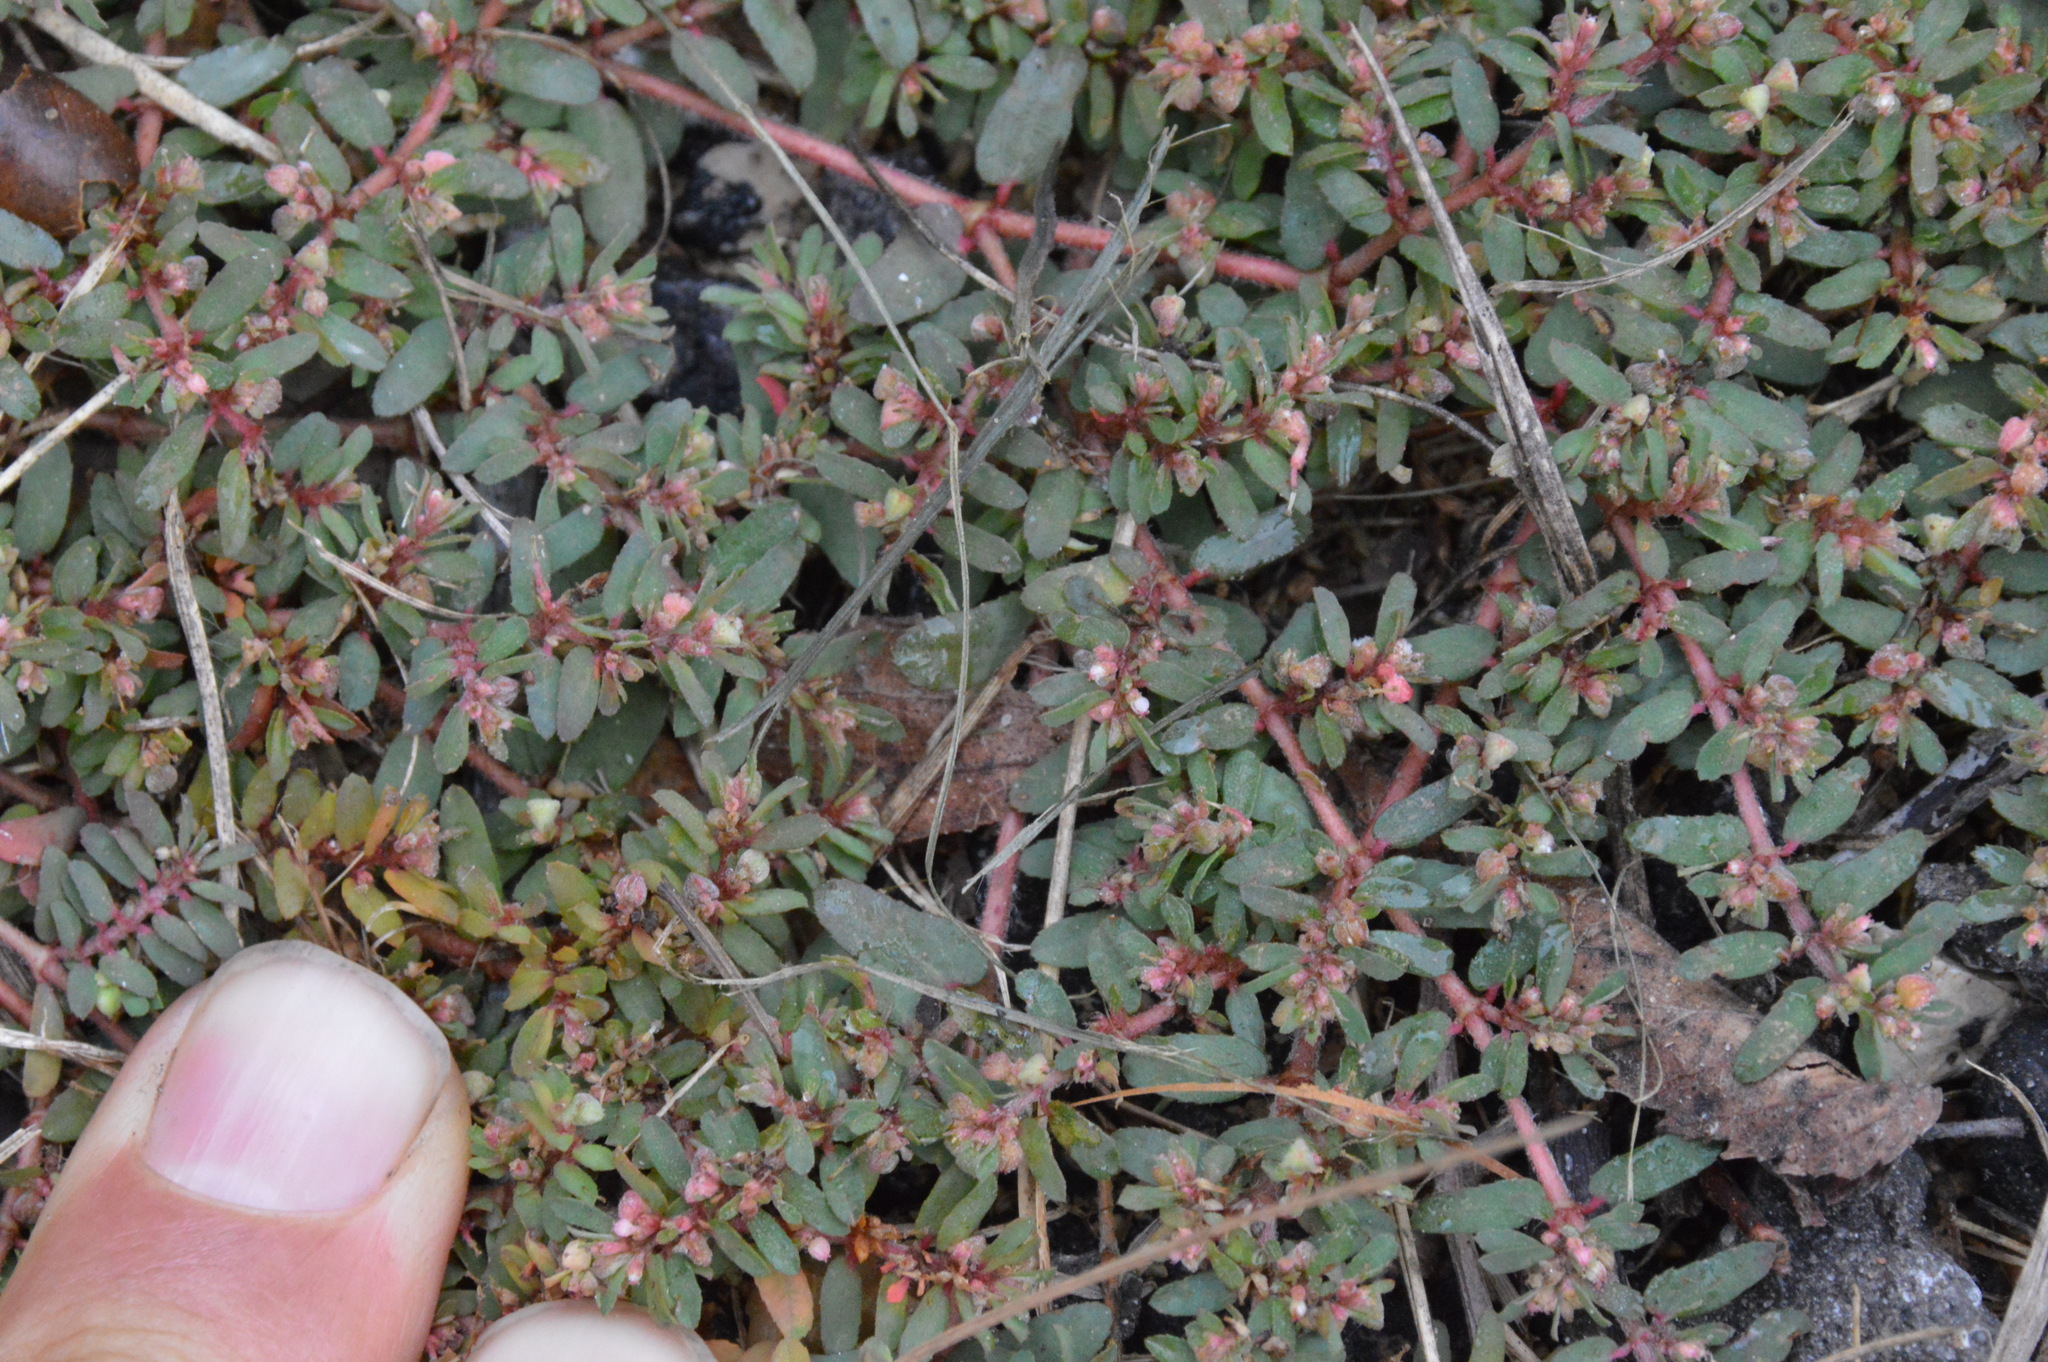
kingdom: Plantae
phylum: Tracheophyta
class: Magnoliopsida
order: Malpighiales
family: Euphorbiaceae
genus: Euphorbia
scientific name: Euphorbia maculata
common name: Spotted spurge
